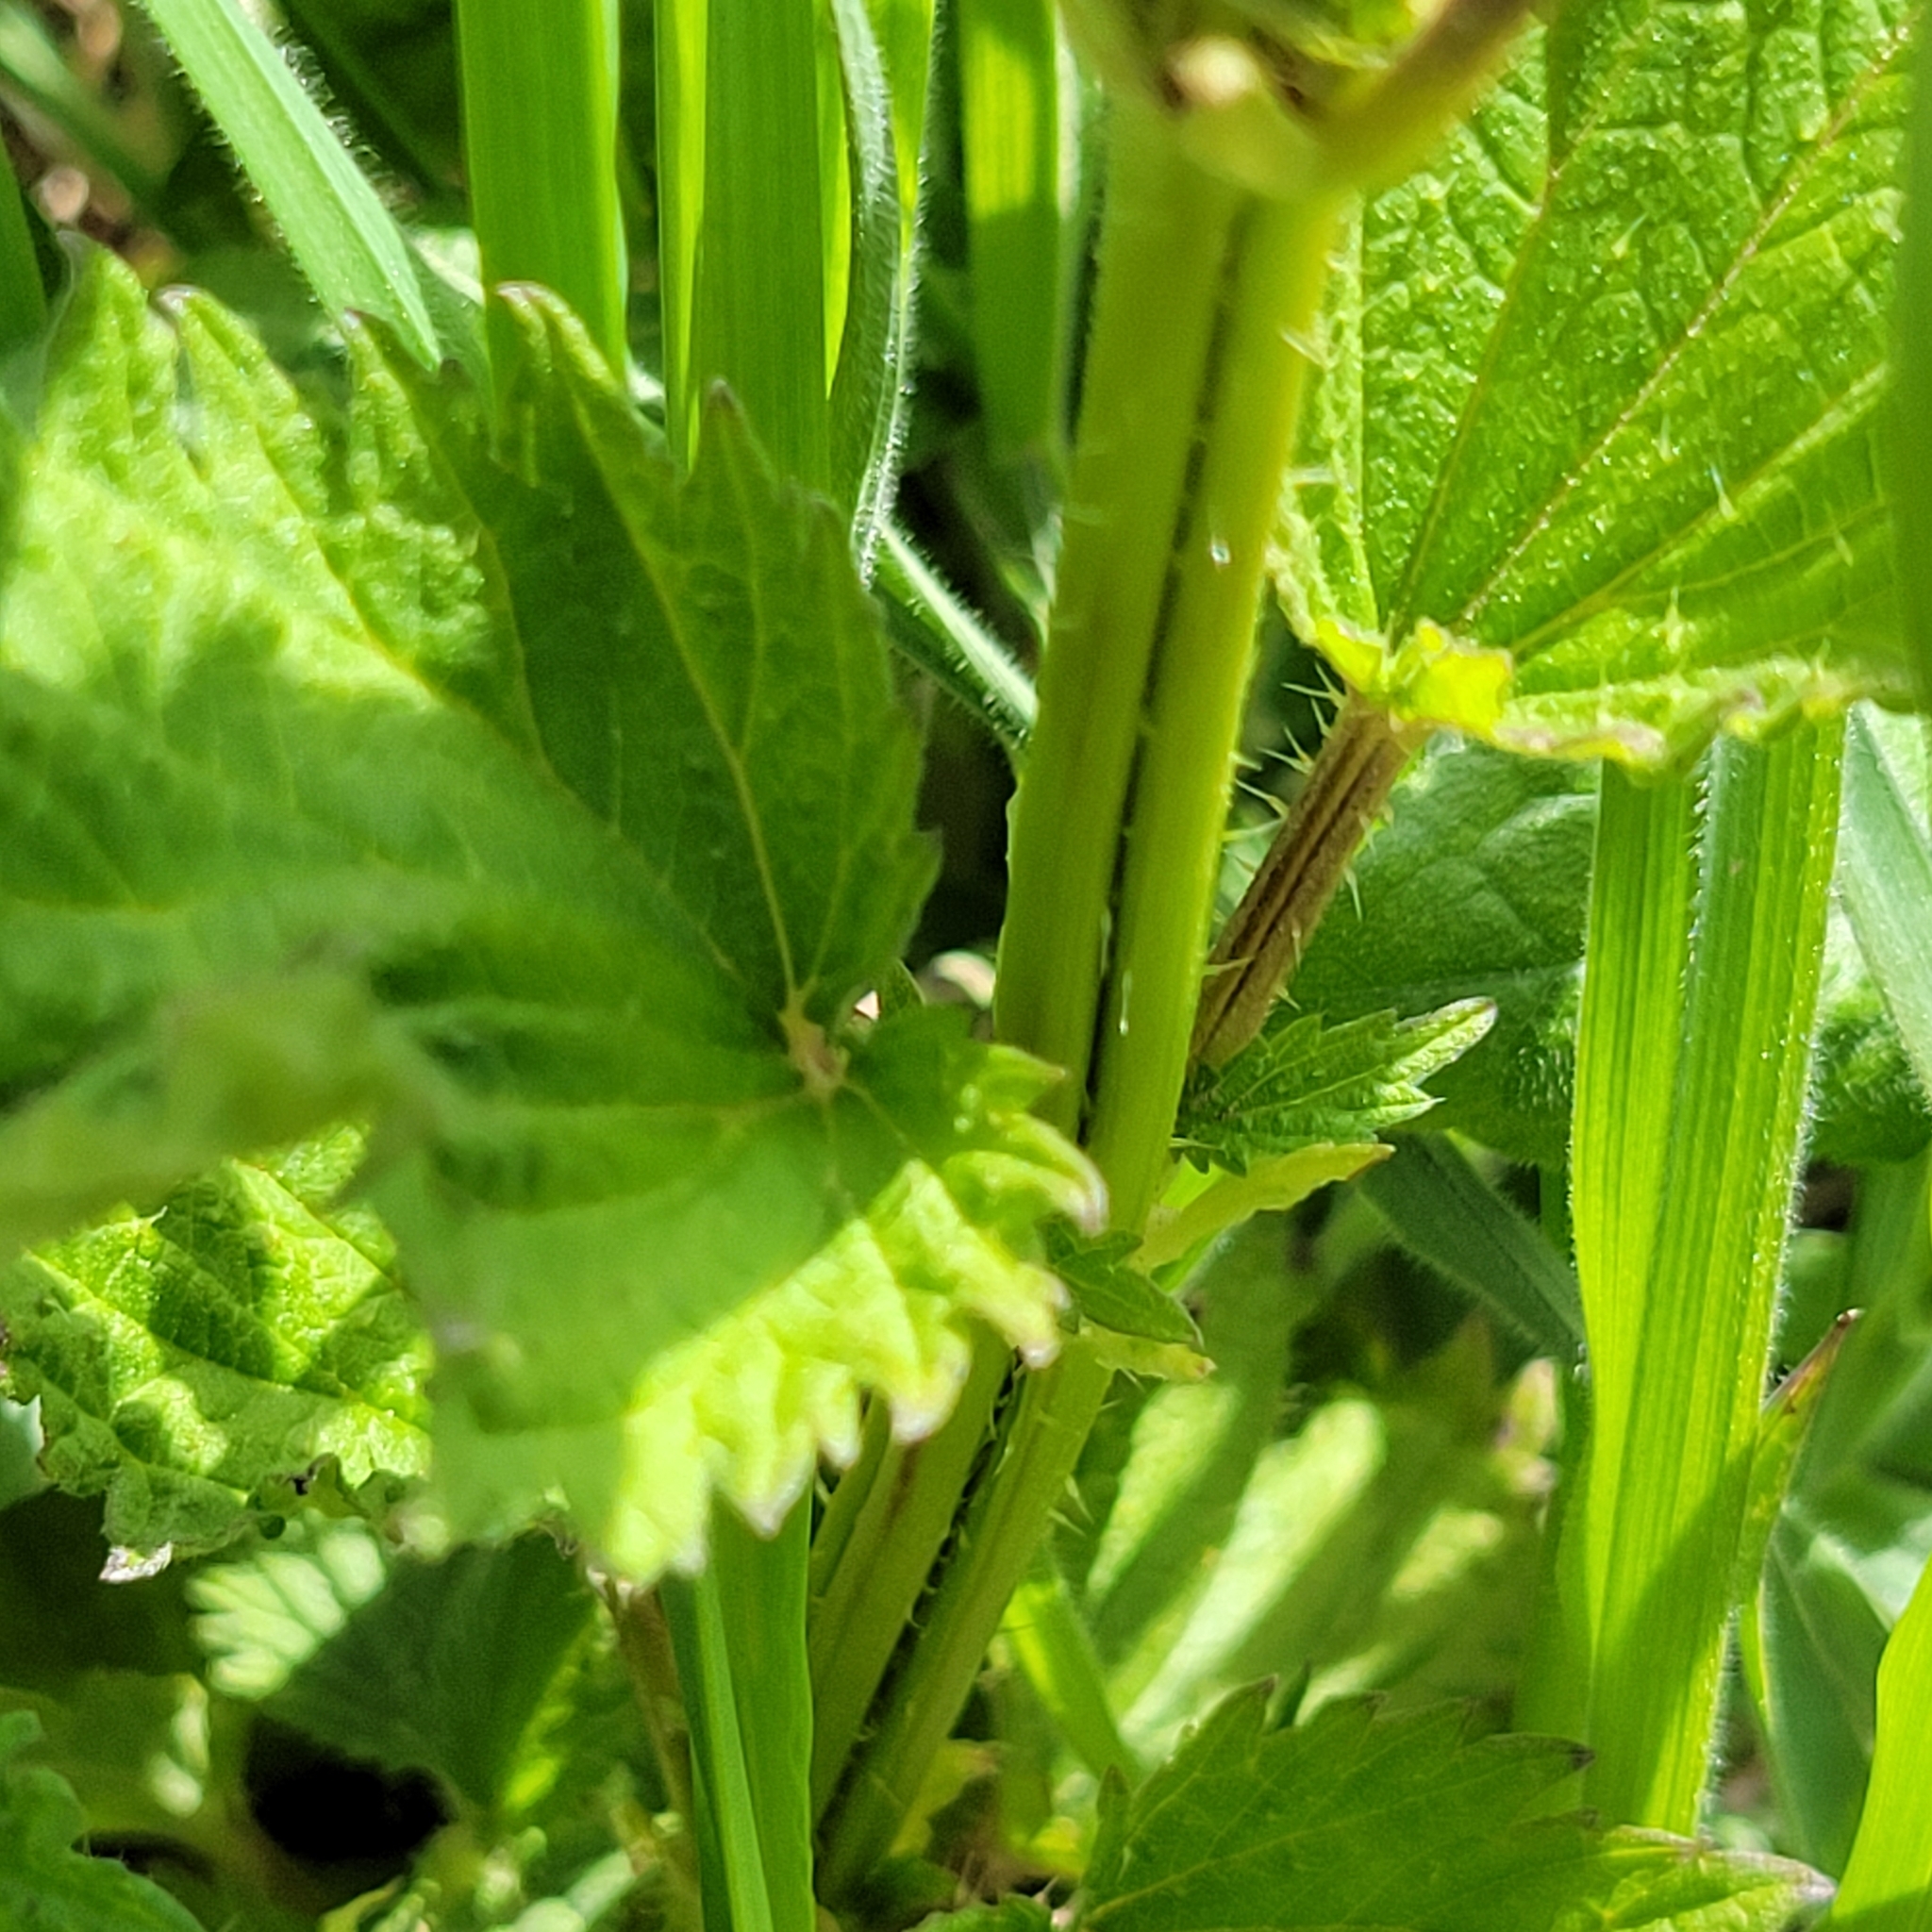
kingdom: Plantae
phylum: Tracheophyta
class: Magnoliopsida
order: Rosales
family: Urticaceae
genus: Urtica
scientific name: Urtica dioica
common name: Common nettle
